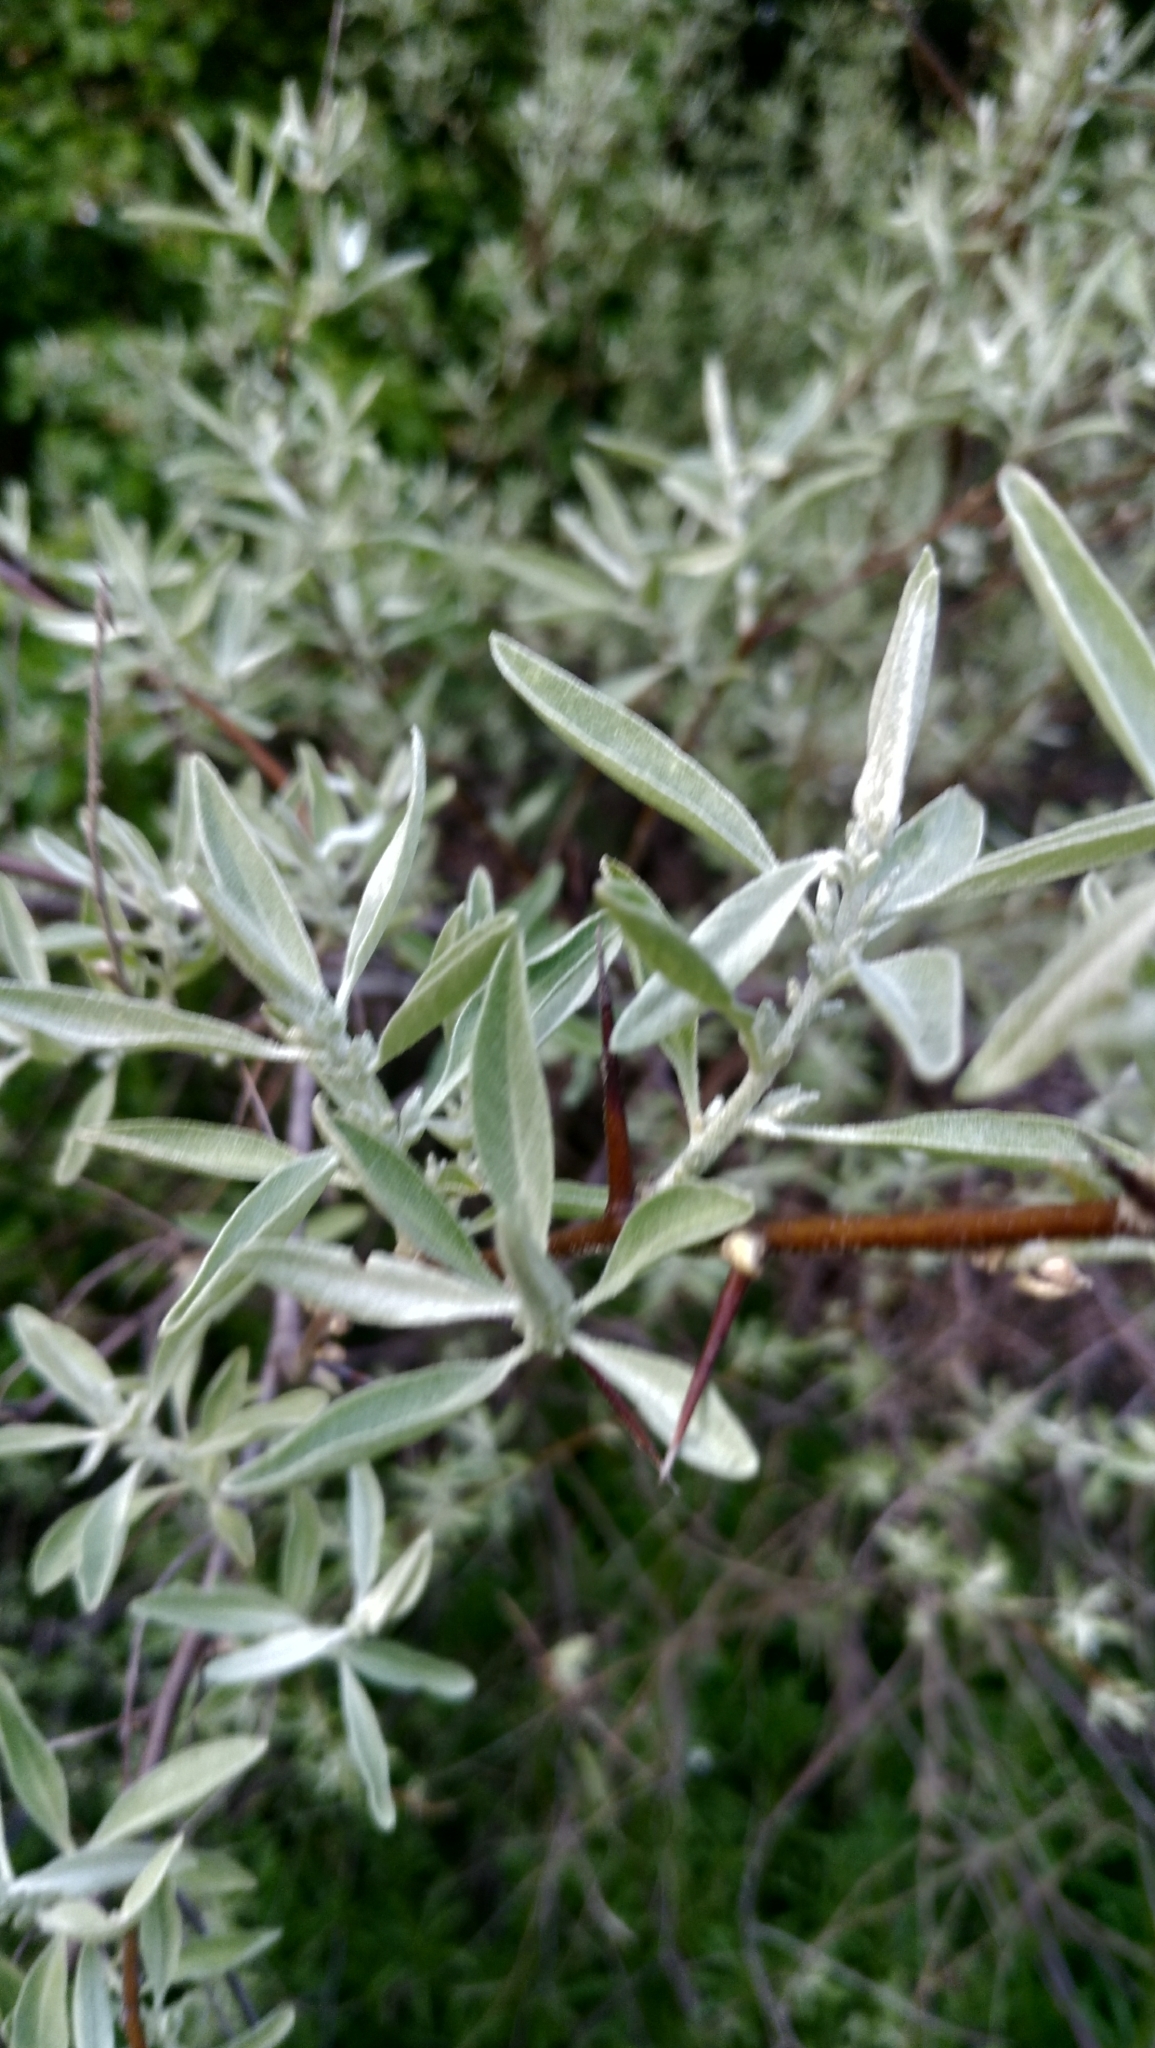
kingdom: Plantae
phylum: Tracheophyta
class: Magnoliopsida
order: Rosales
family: Elaeagnaceae
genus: Elaeagnus
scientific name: Elaeagnus angustifolia
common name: Russian olive
